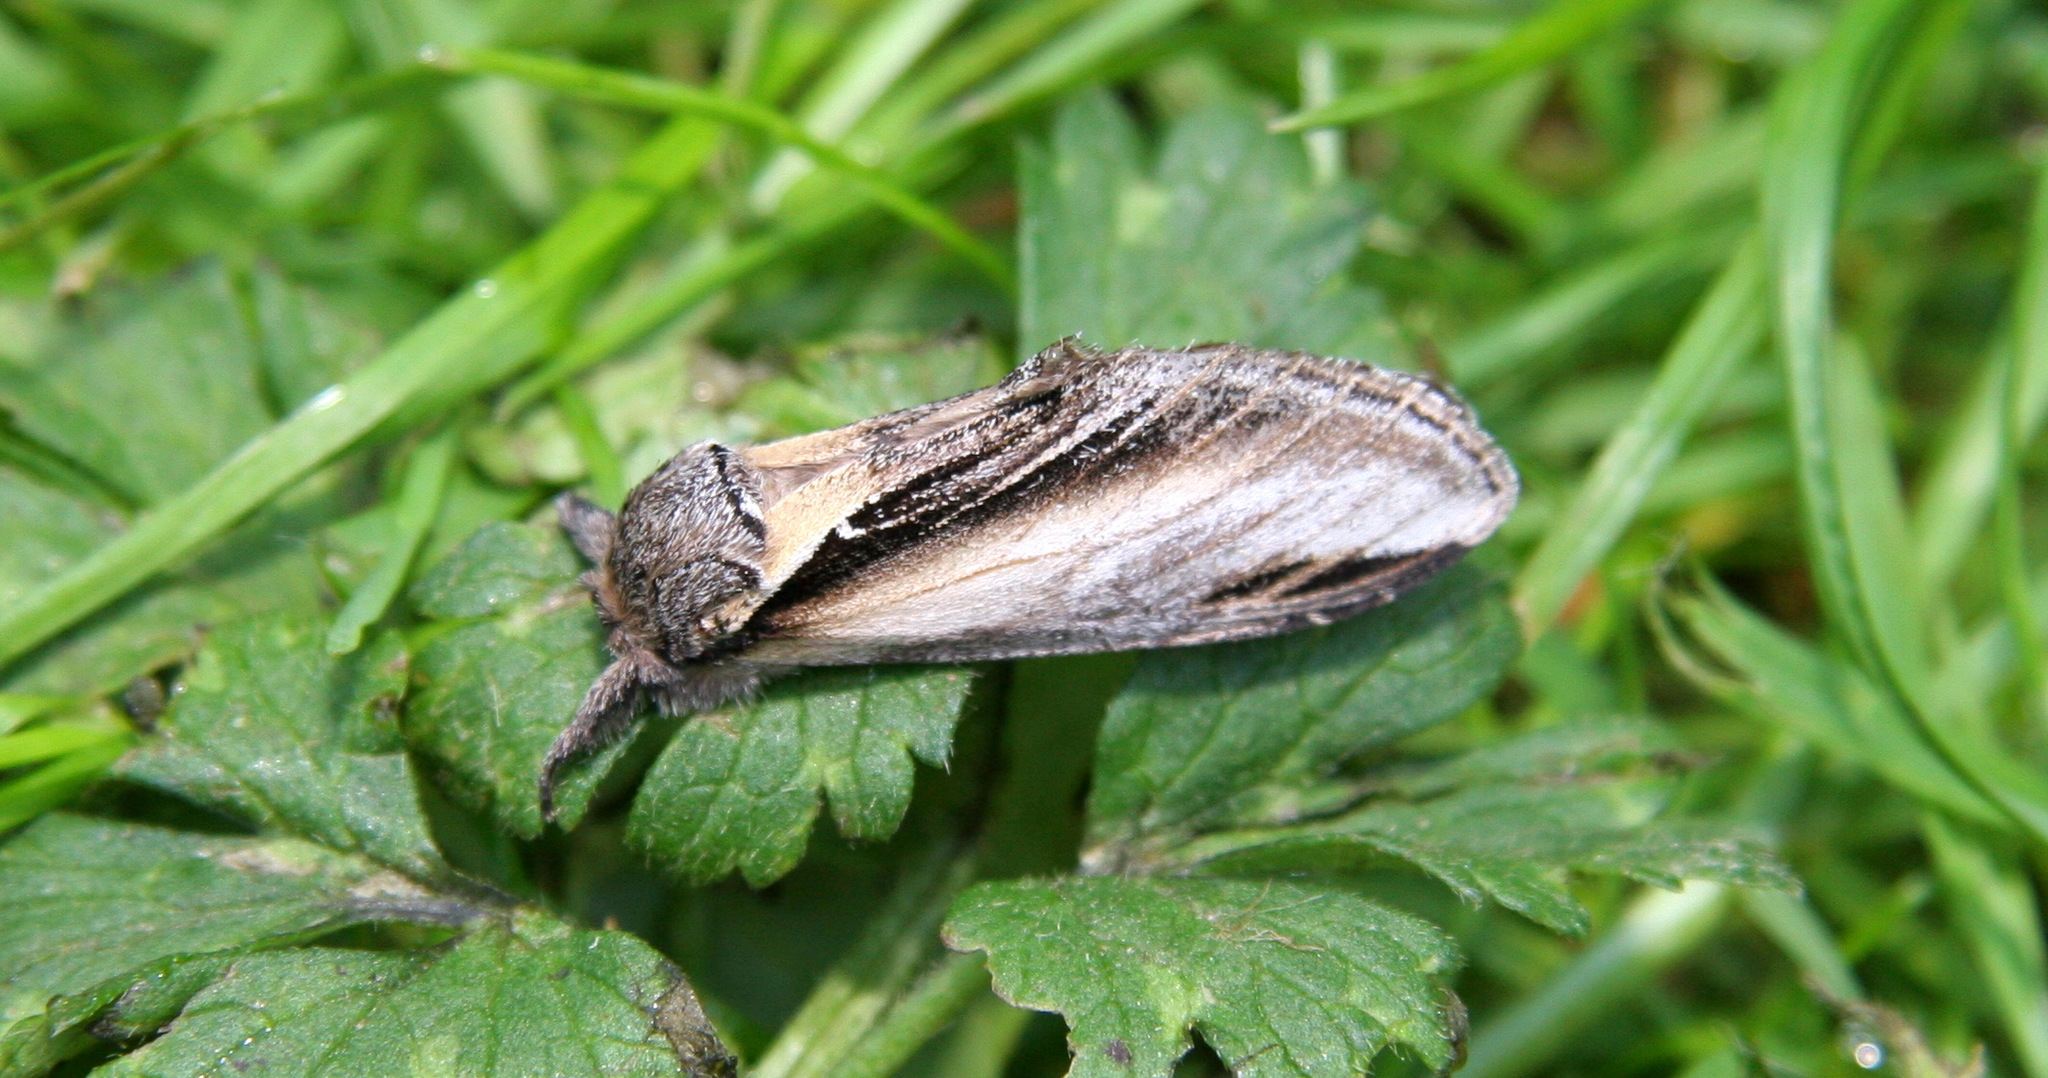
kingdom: Animalia
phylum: Arthropoda
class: Insecta
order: Lepidoptera
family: Notodontidae
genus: Pheosia
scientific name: Pheosia tremula
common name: Swallow prominent
